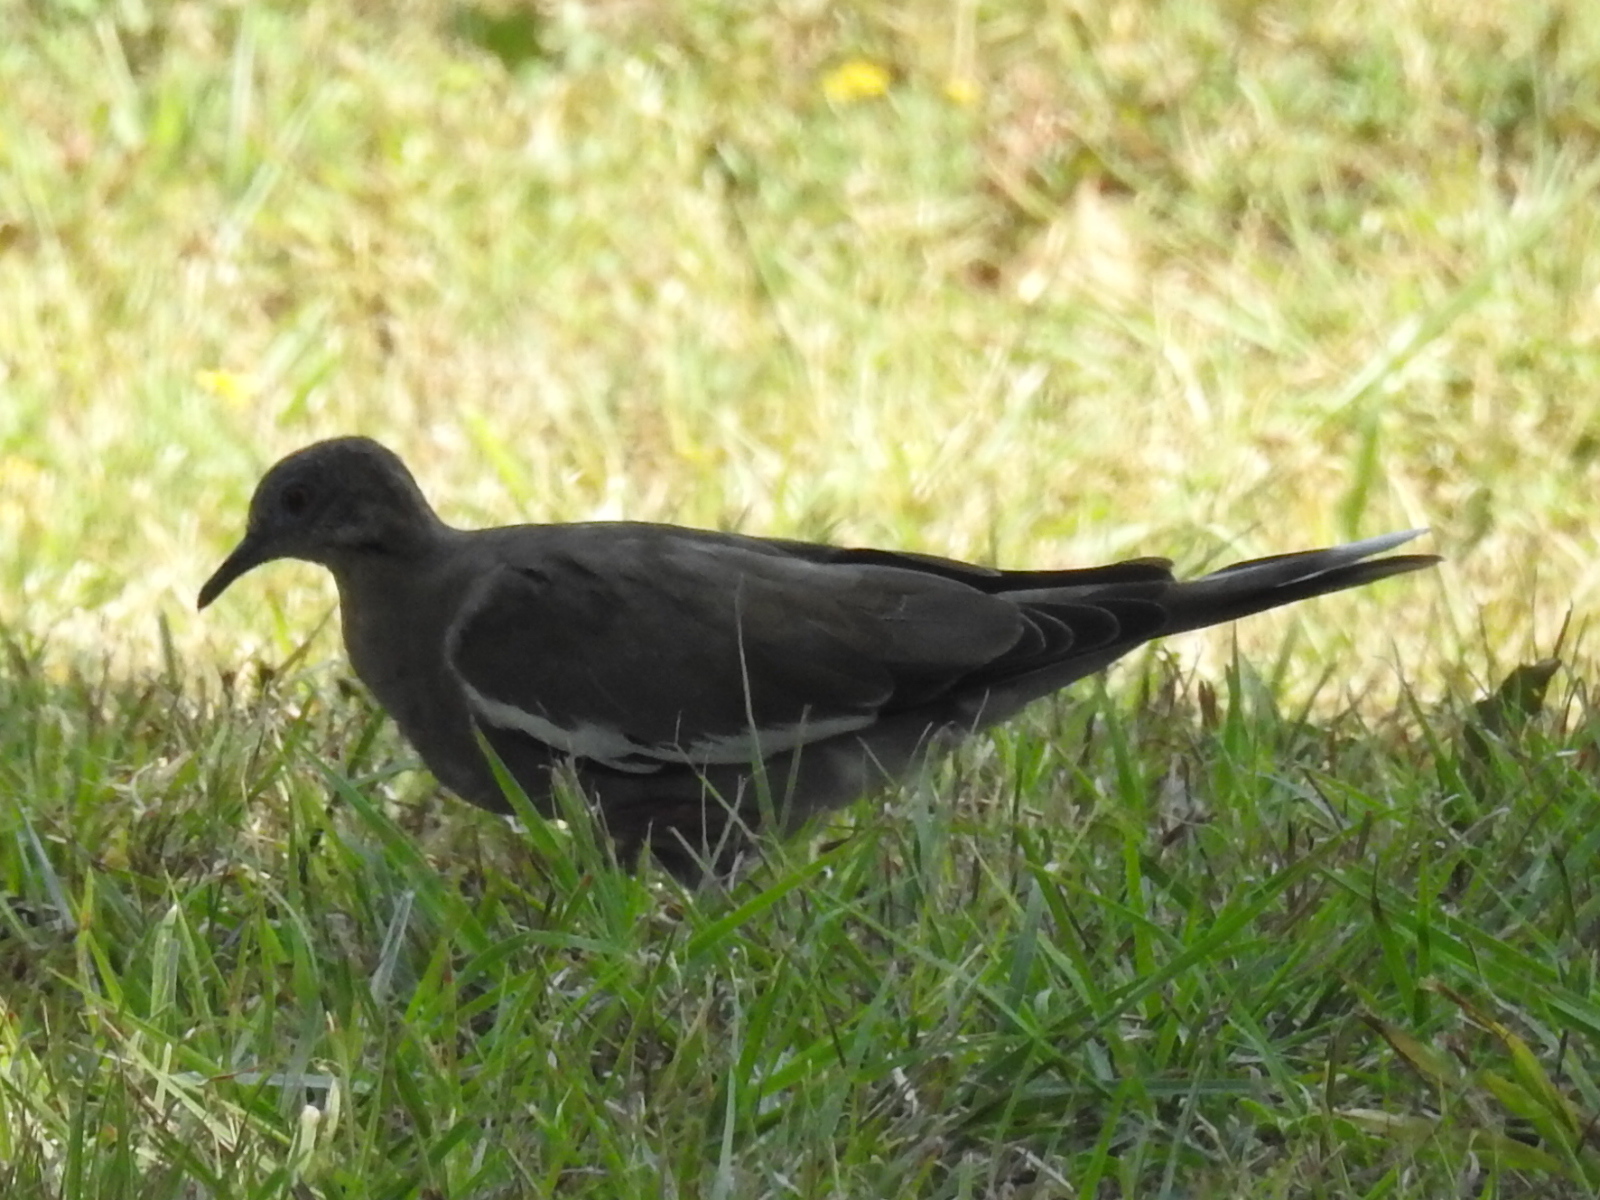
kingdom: Animalia
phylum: Chordata
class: Aves
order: Columbiformes
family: Columbidae
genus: Zenaida
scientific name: Zenaida asiatica
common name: White-winged dove
